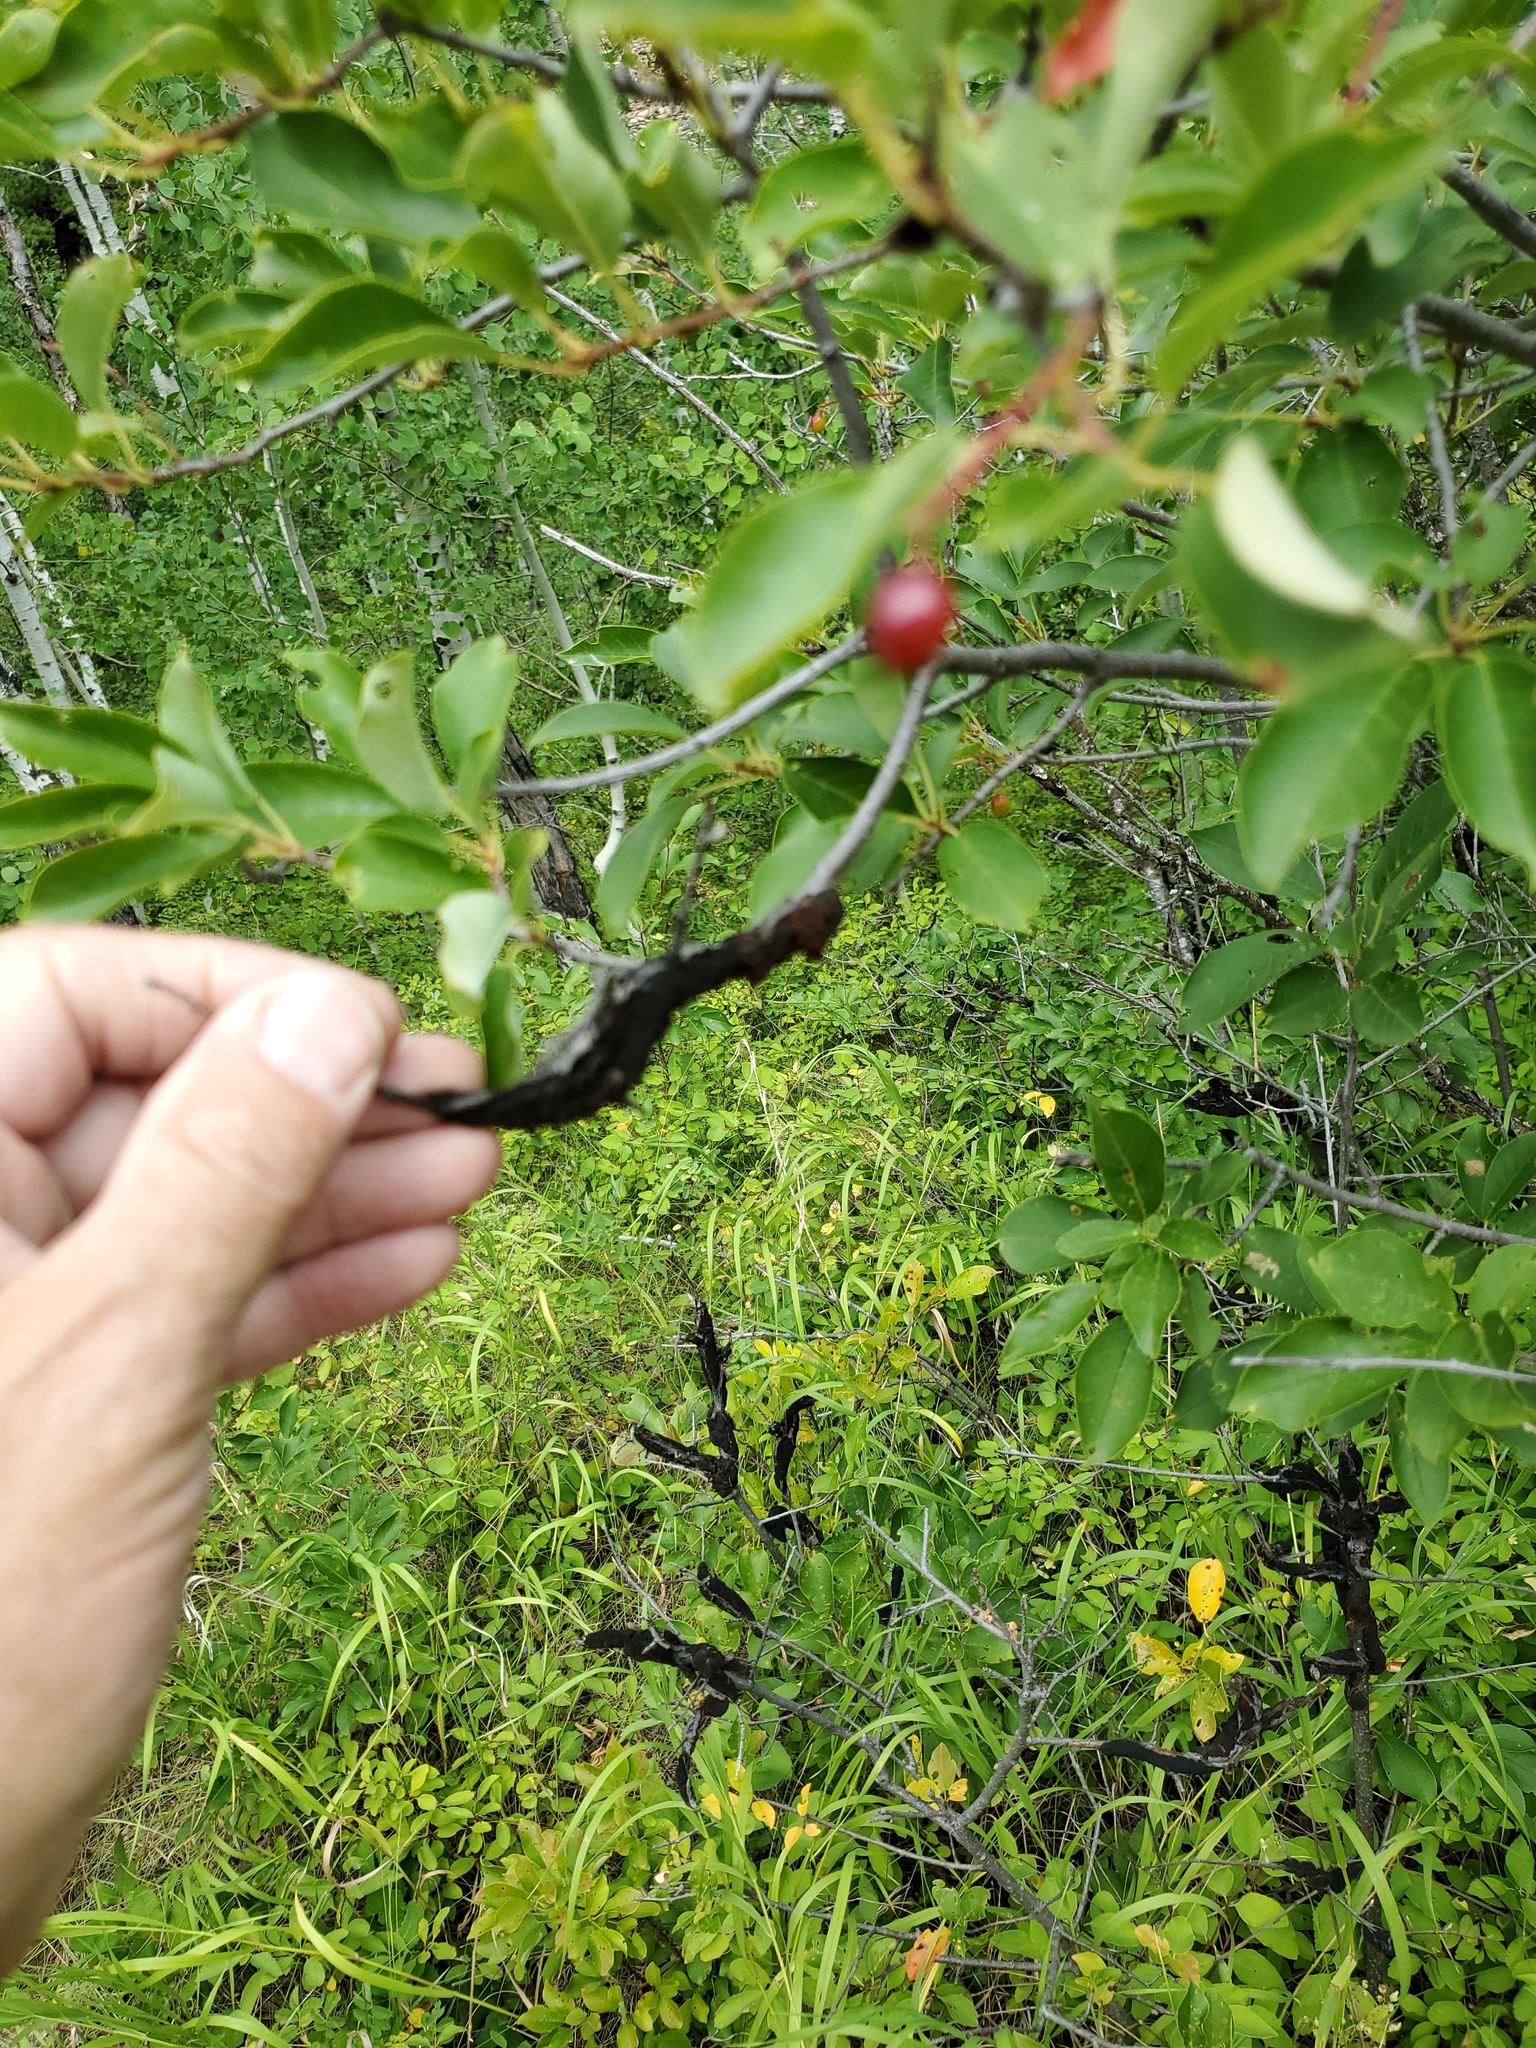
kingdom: Fungi
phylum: Ascomycota
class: Dothideomycetes
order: Venturiales
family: Venturiaceae
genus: Apiosporina
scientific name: Apiosporina morbosa
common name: Black knot
